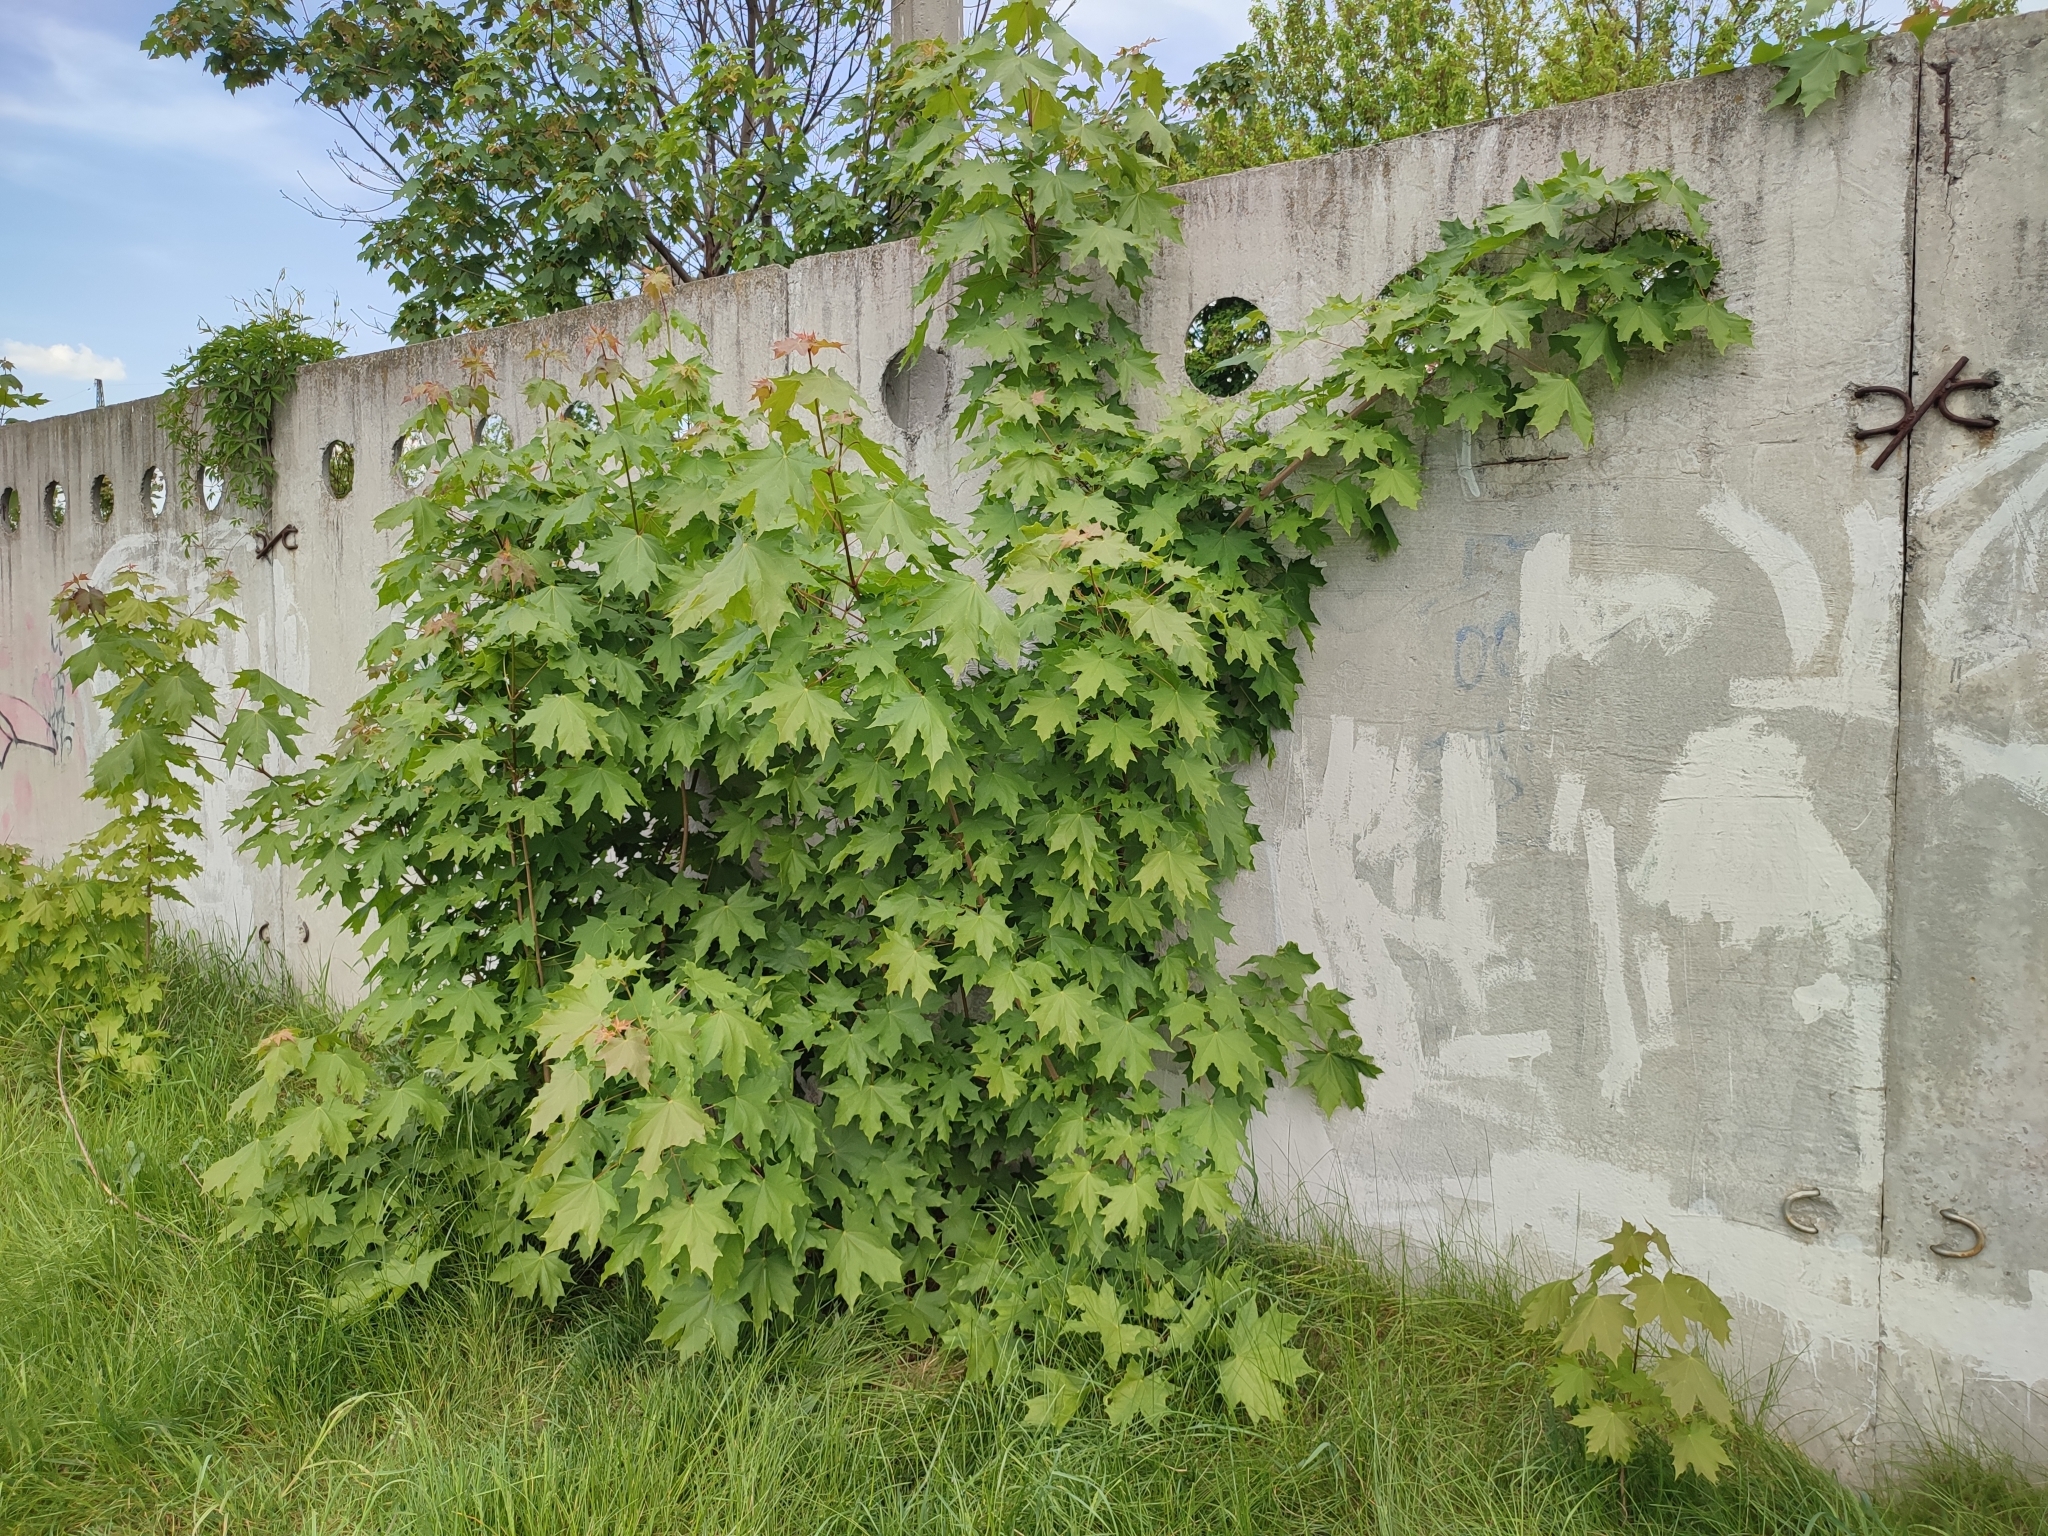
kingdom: Plantae
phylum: Tracheophyta
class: Magnoliopsida
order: Sapindales
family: Sapindaceae
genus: Acer
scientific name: Acer platanoides
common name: Norway maple
